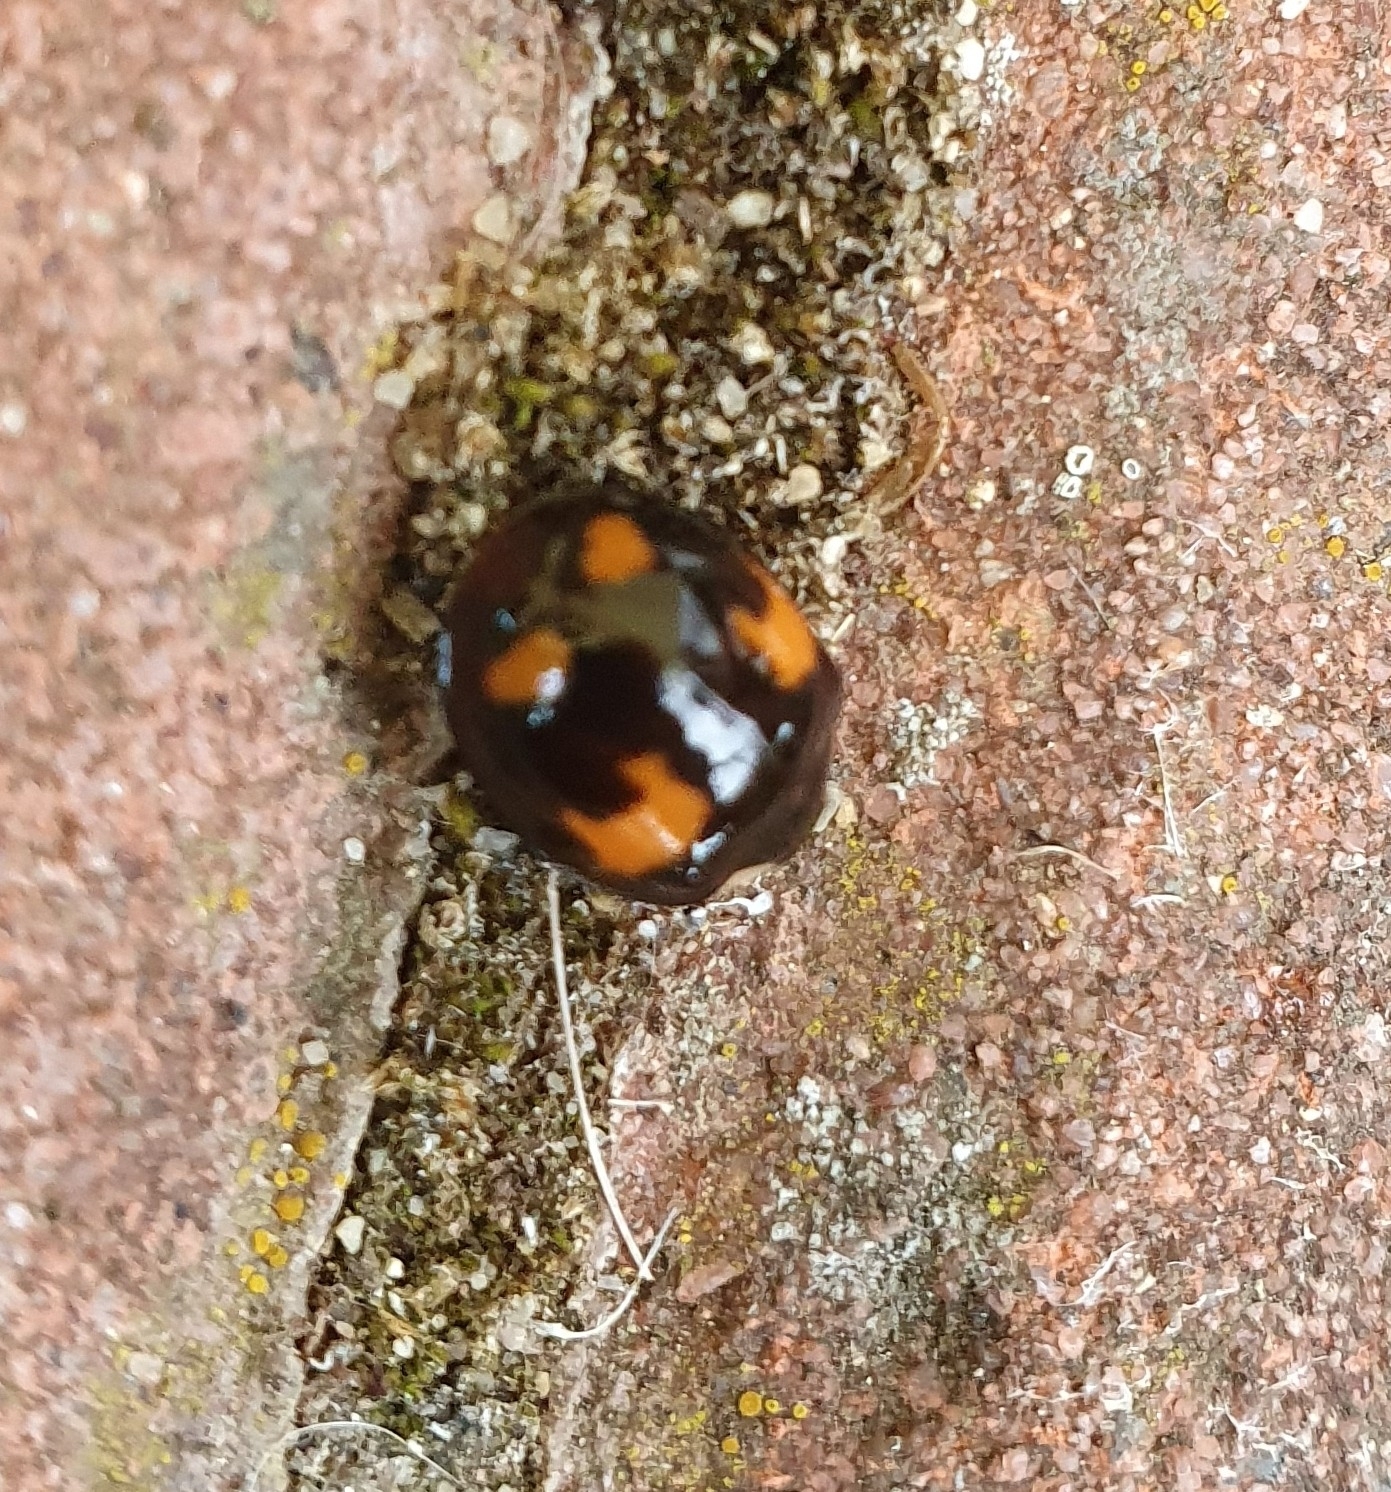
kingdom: Animalia
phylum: Arthropoda
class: Insecta
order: Coleoptera
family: Coccinellidae
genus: Harmonia
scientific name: Harmonia axyridis
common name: Harlequin ladybird
